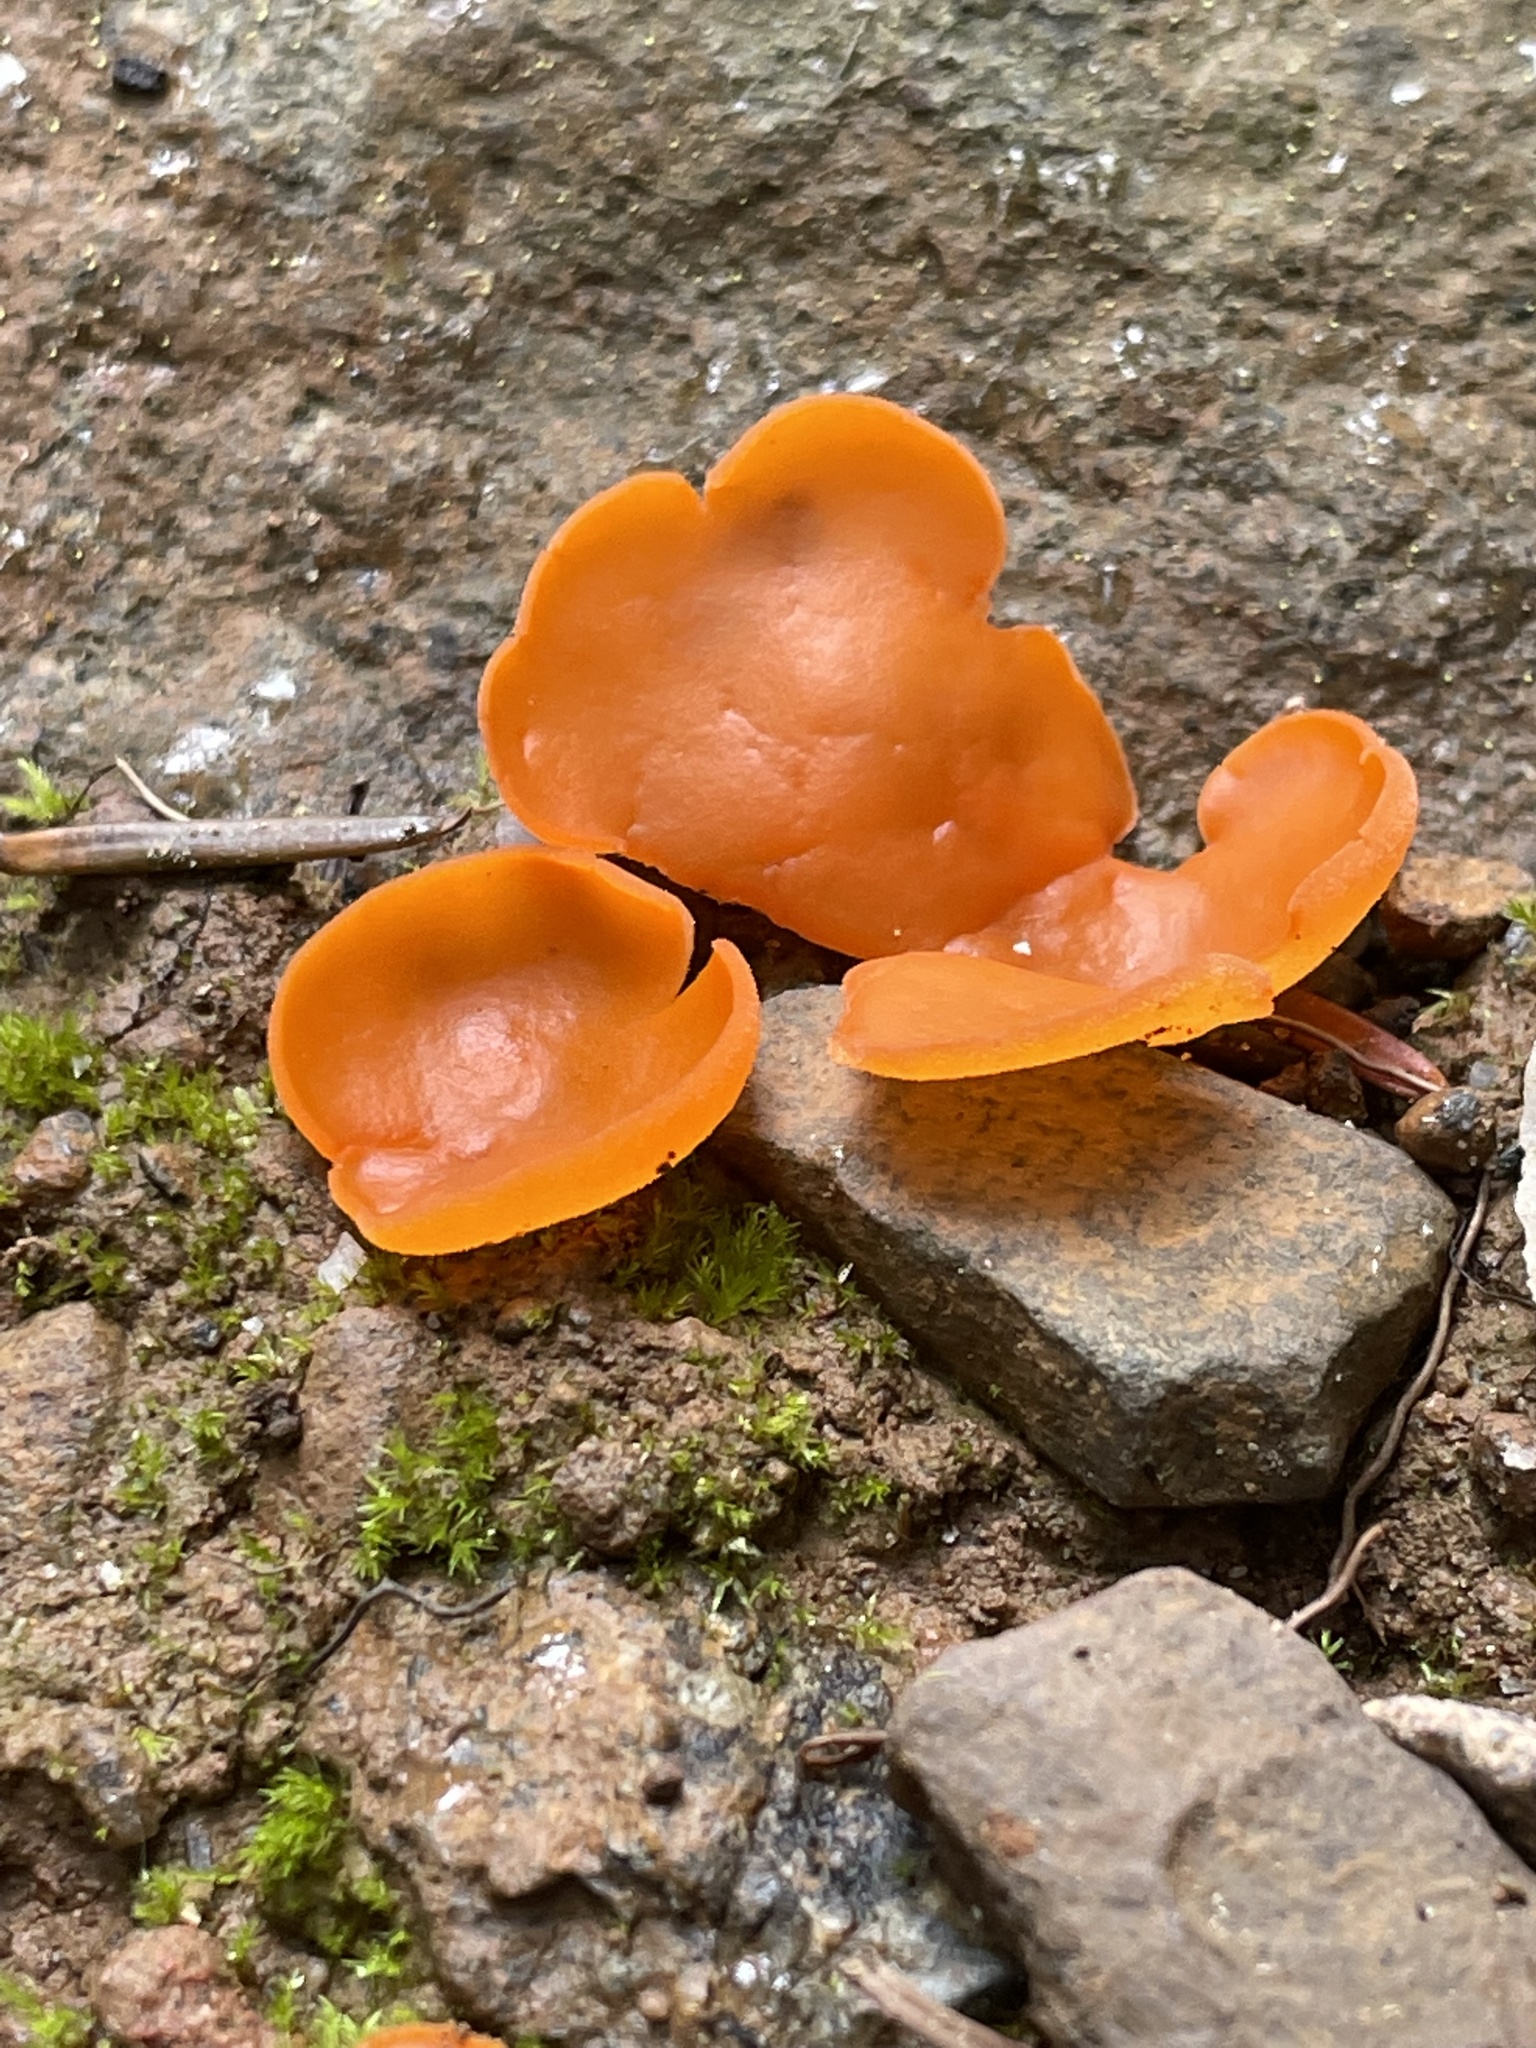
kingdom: Fungi
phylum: Ascomycota
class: Pezizomycetes
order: Pezizales
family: Pyronemataceae
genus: Aleuria
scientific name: Aleuria aurantia
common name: Orange peel fungus
